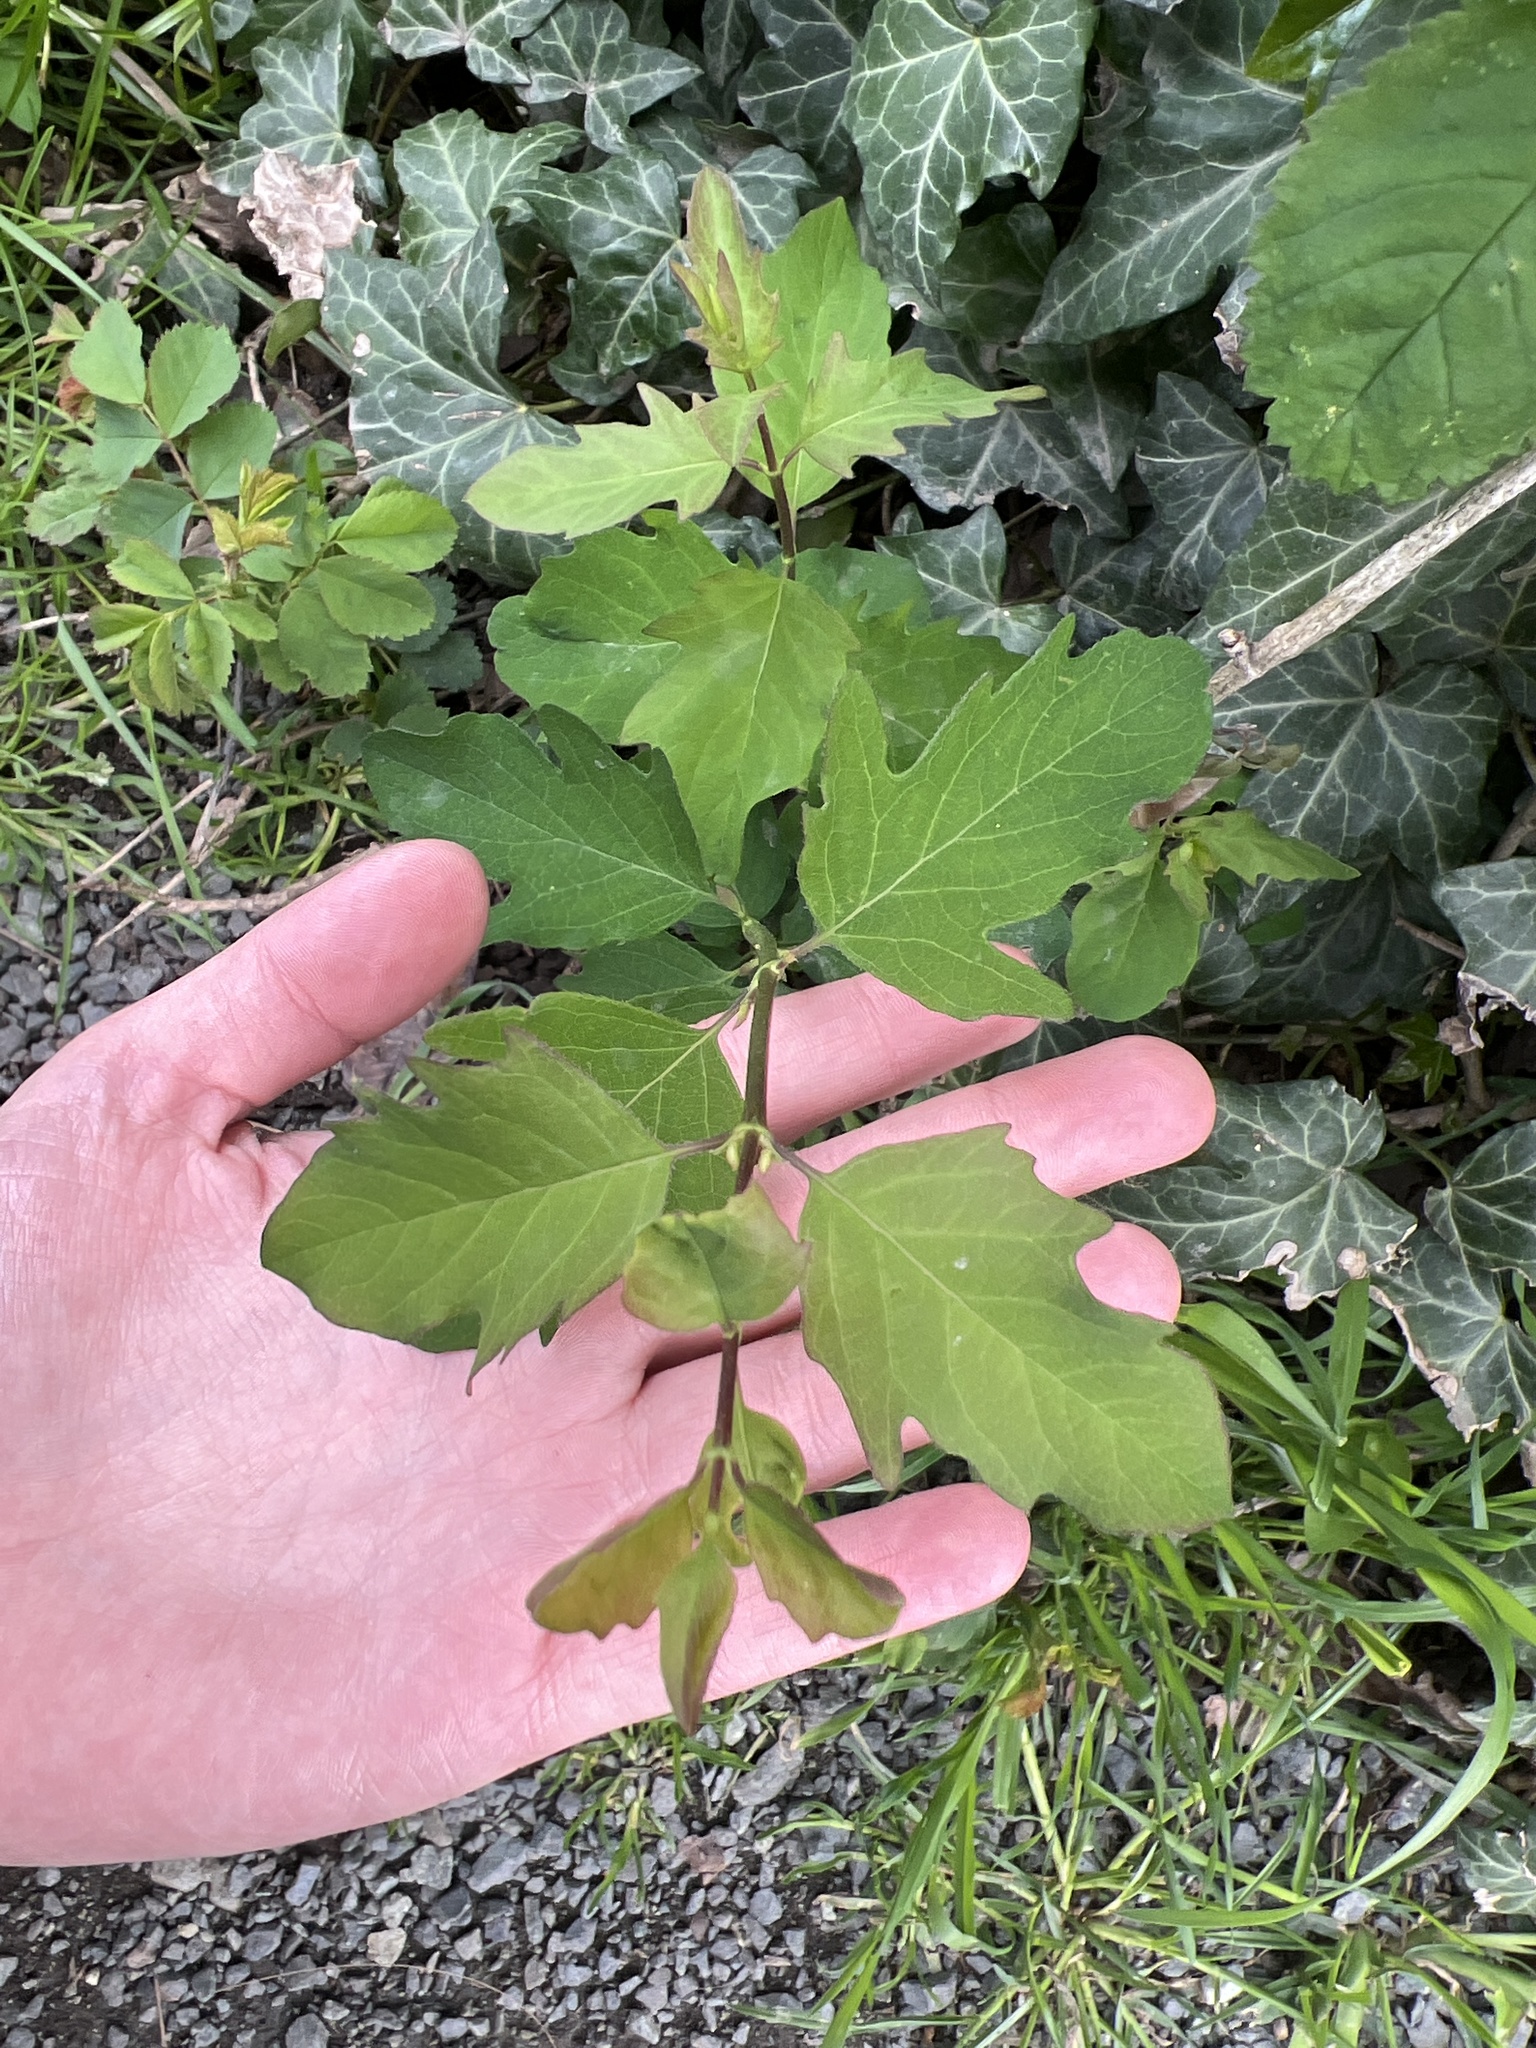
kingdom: Plantae
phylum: Tracheophyta
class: Magnoliopsida
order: Dipsacales
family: Caprifoliaceae
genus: Symphoricarpos
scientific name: Symphoricarpos albus
